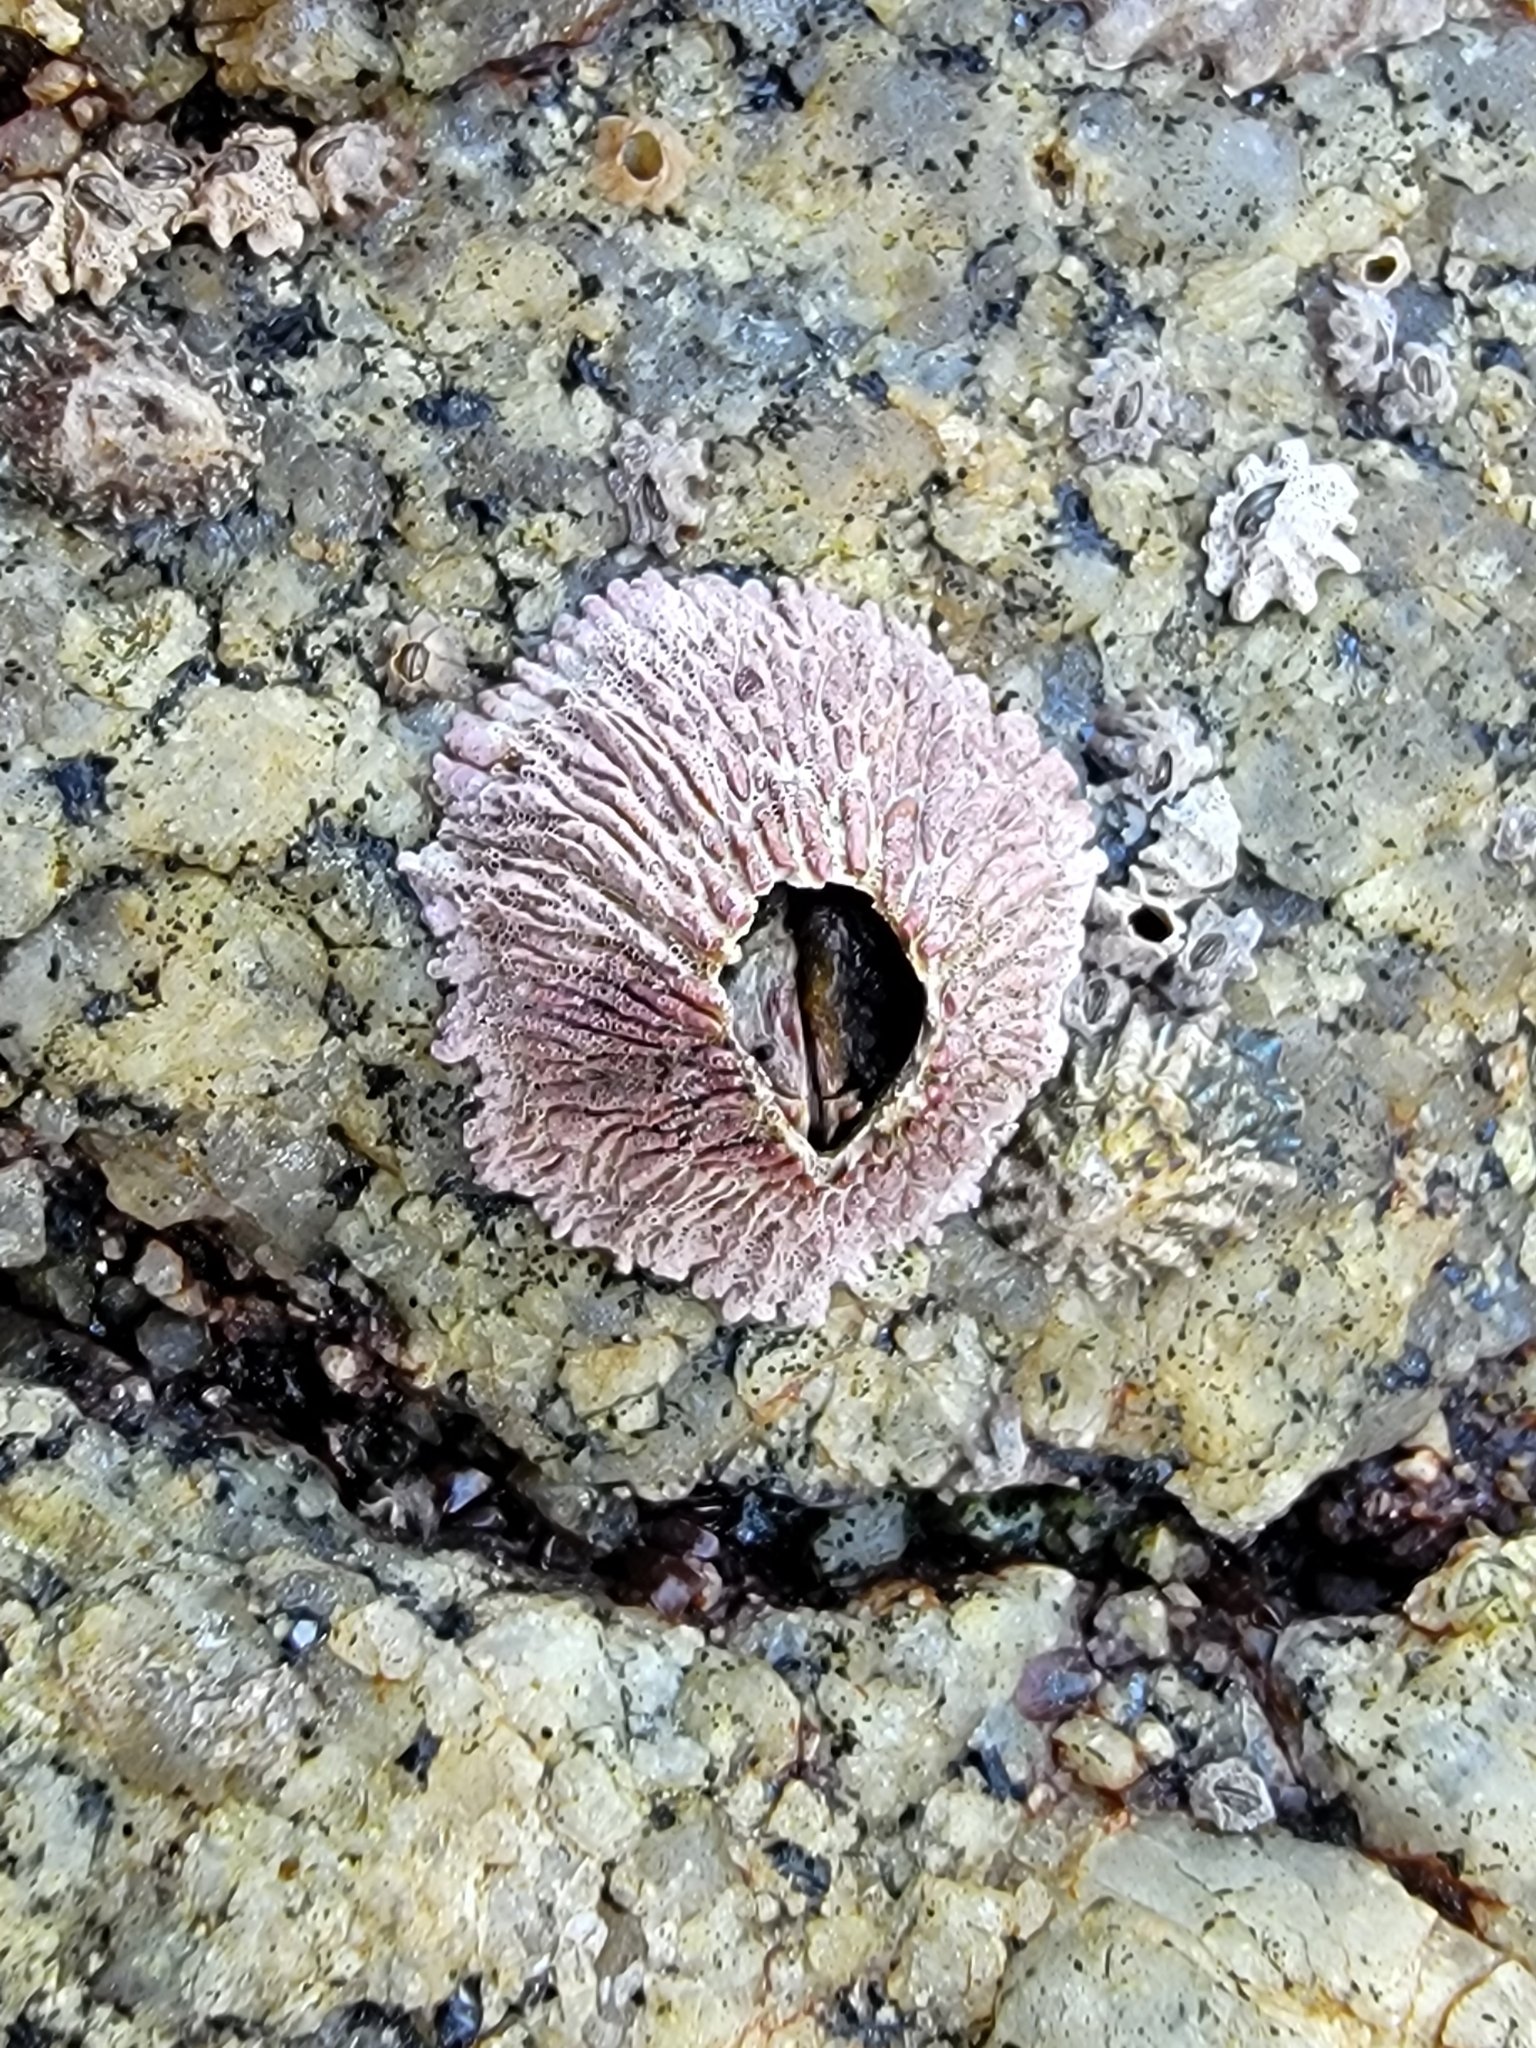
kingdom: Animalia
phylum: Arthropoda
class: Maxillopoda
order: Sessilia
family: Tetraclitidae
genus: Tetraclita
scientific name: Tetraclita rubescens
